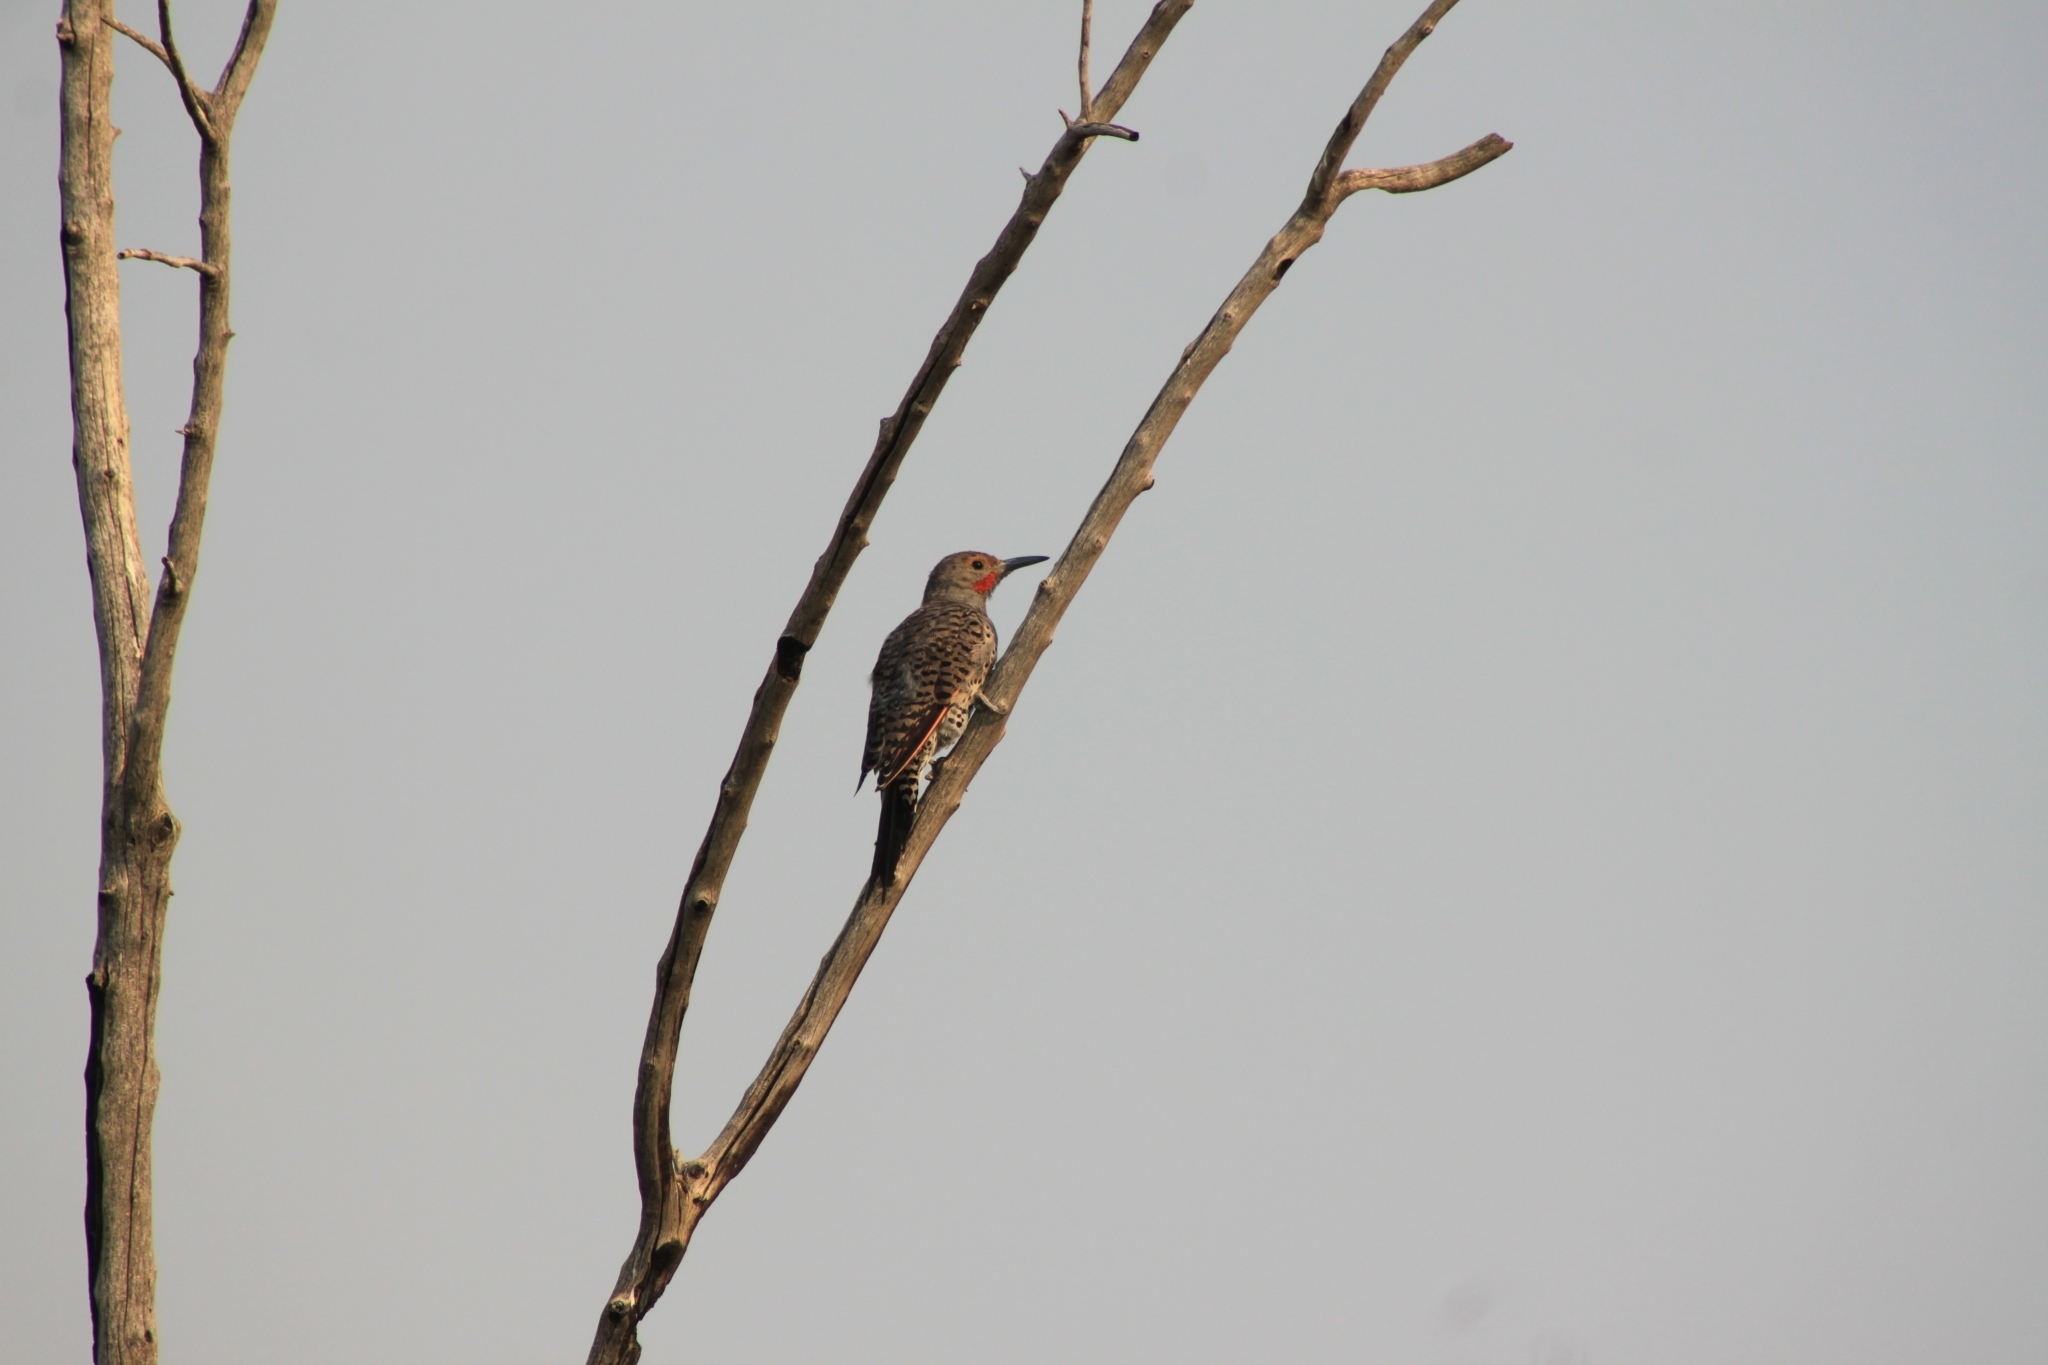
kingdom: Animalia
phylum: Chordata
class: Aves
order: Piciformes
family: Picidae
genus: Colaptes
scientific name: Colaptes auratus
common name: Northern flicker
